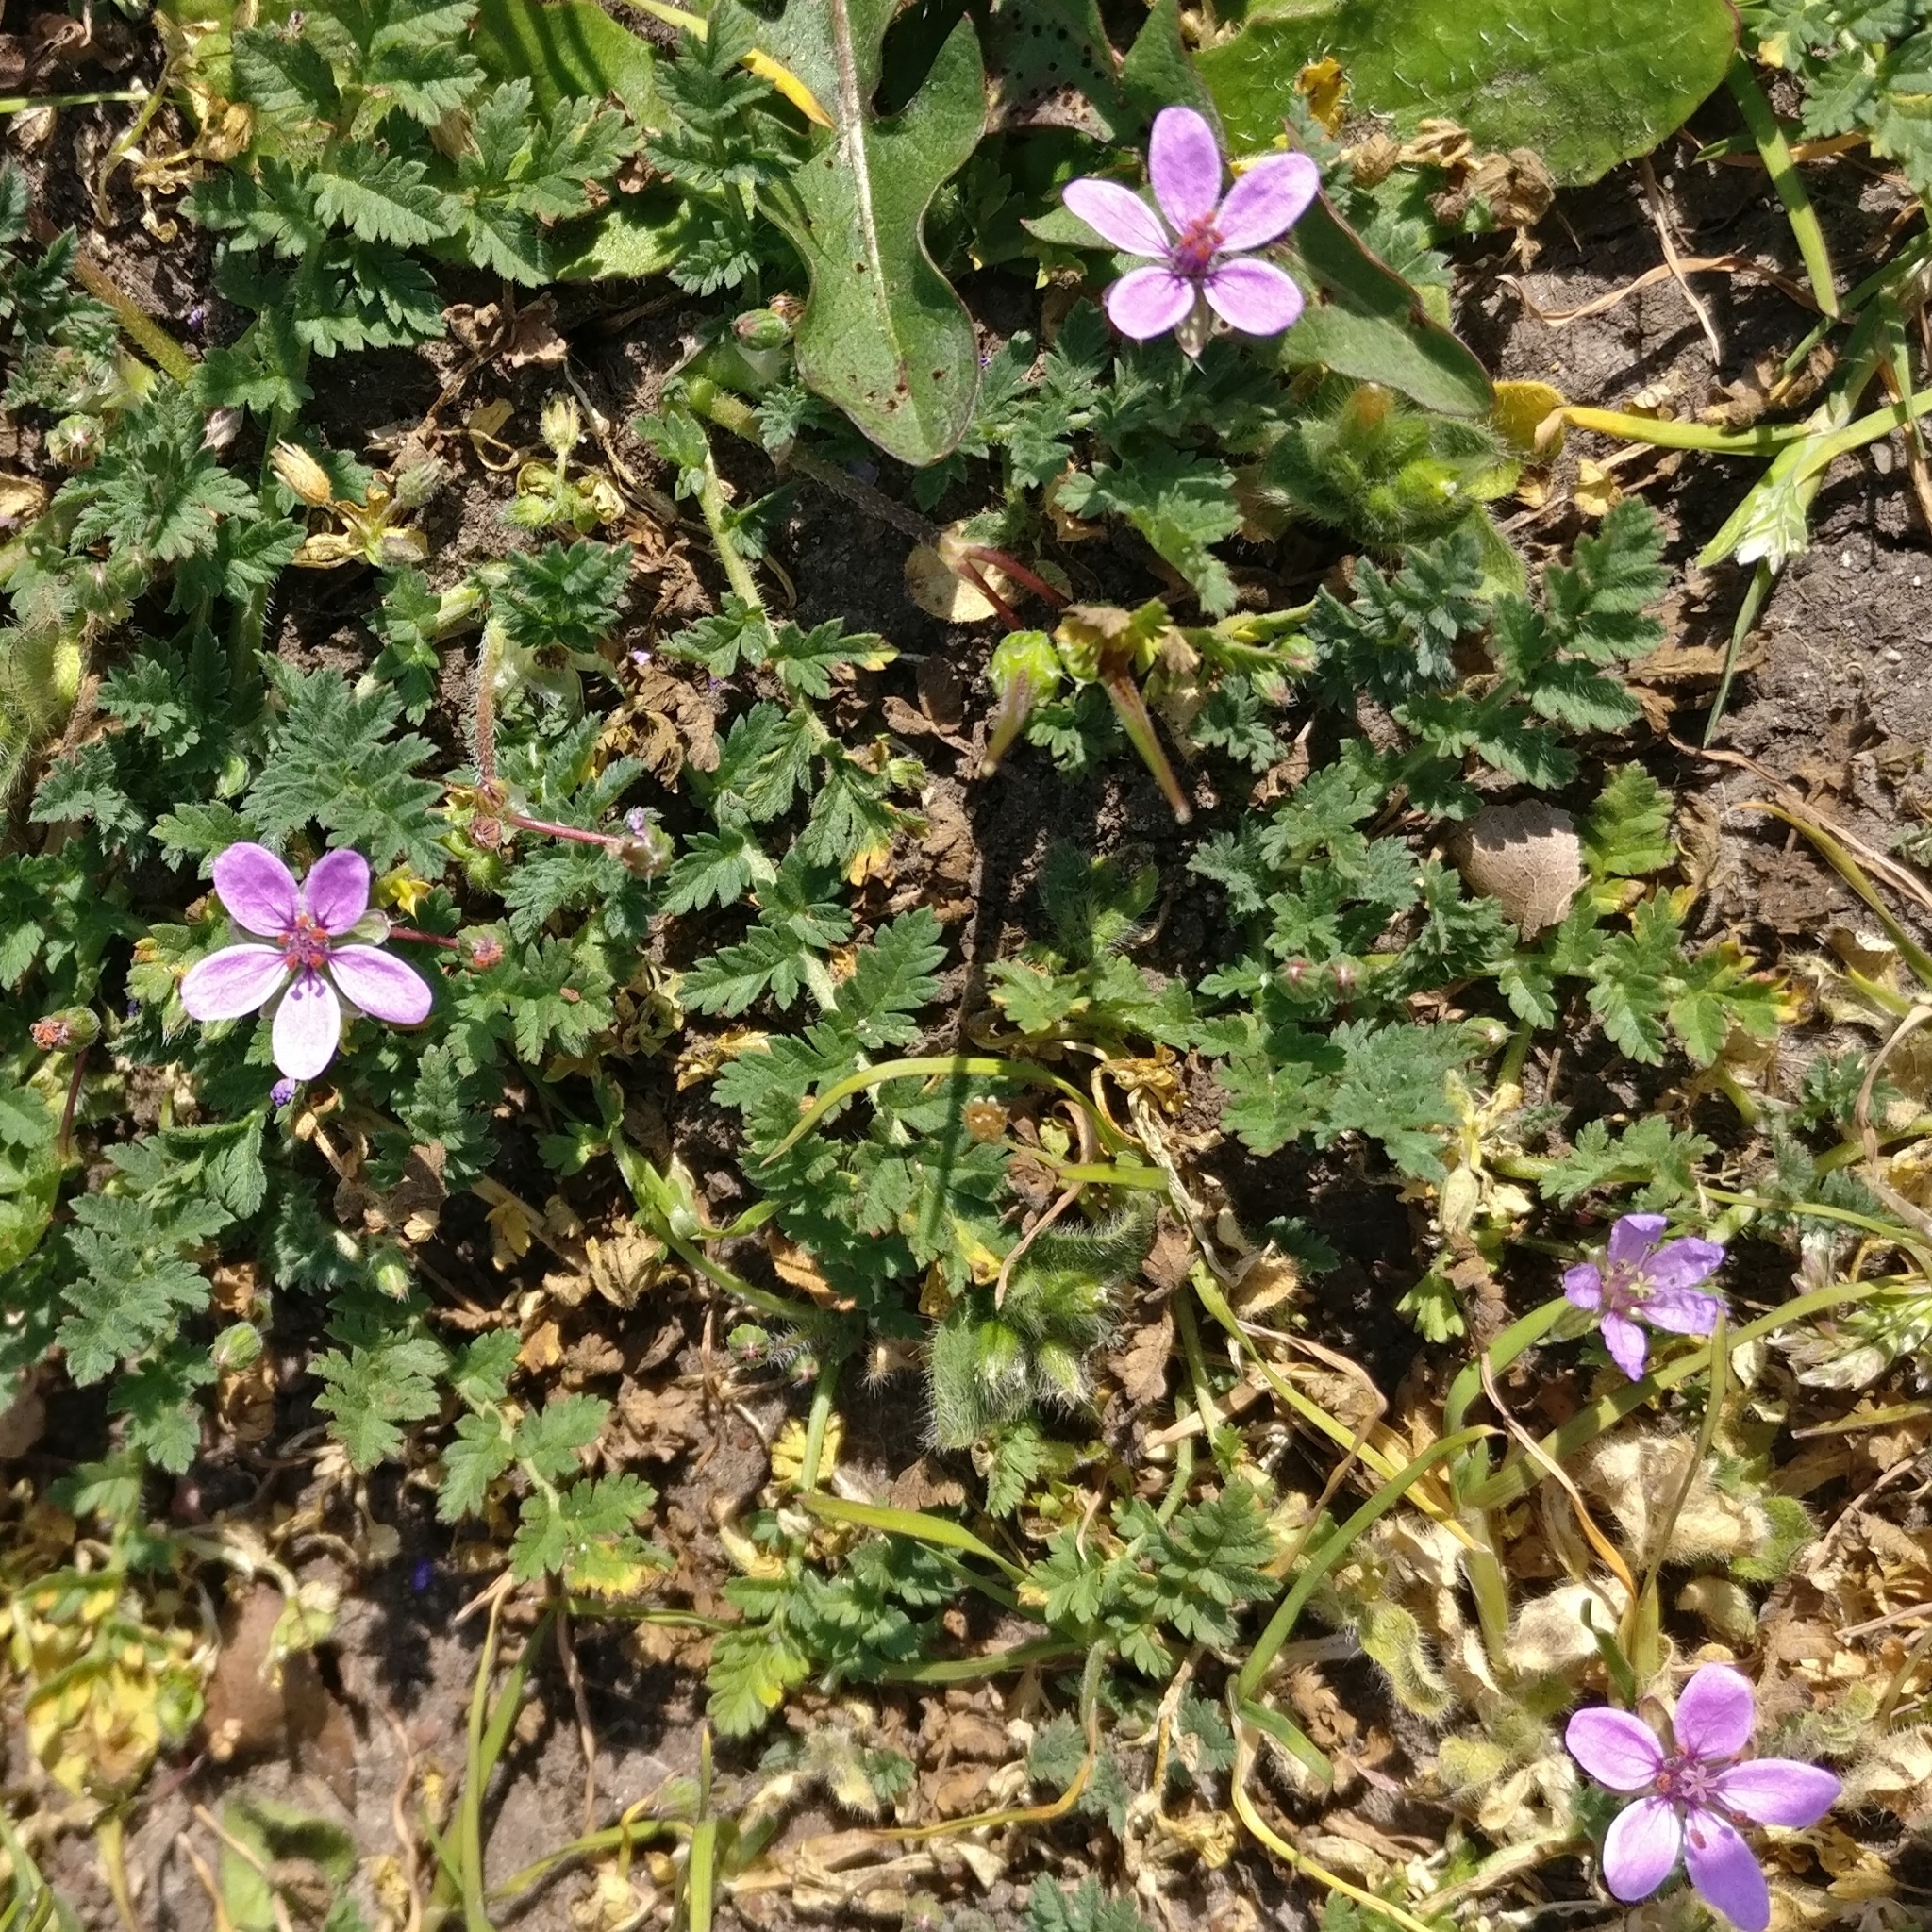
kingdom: Plantae
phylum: Tracheophyta
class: Magnoliopsida
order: Geraniales
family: Geraniaceae
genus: Erodium
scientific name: Erodium cicutarium
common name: Common stork's-bill
